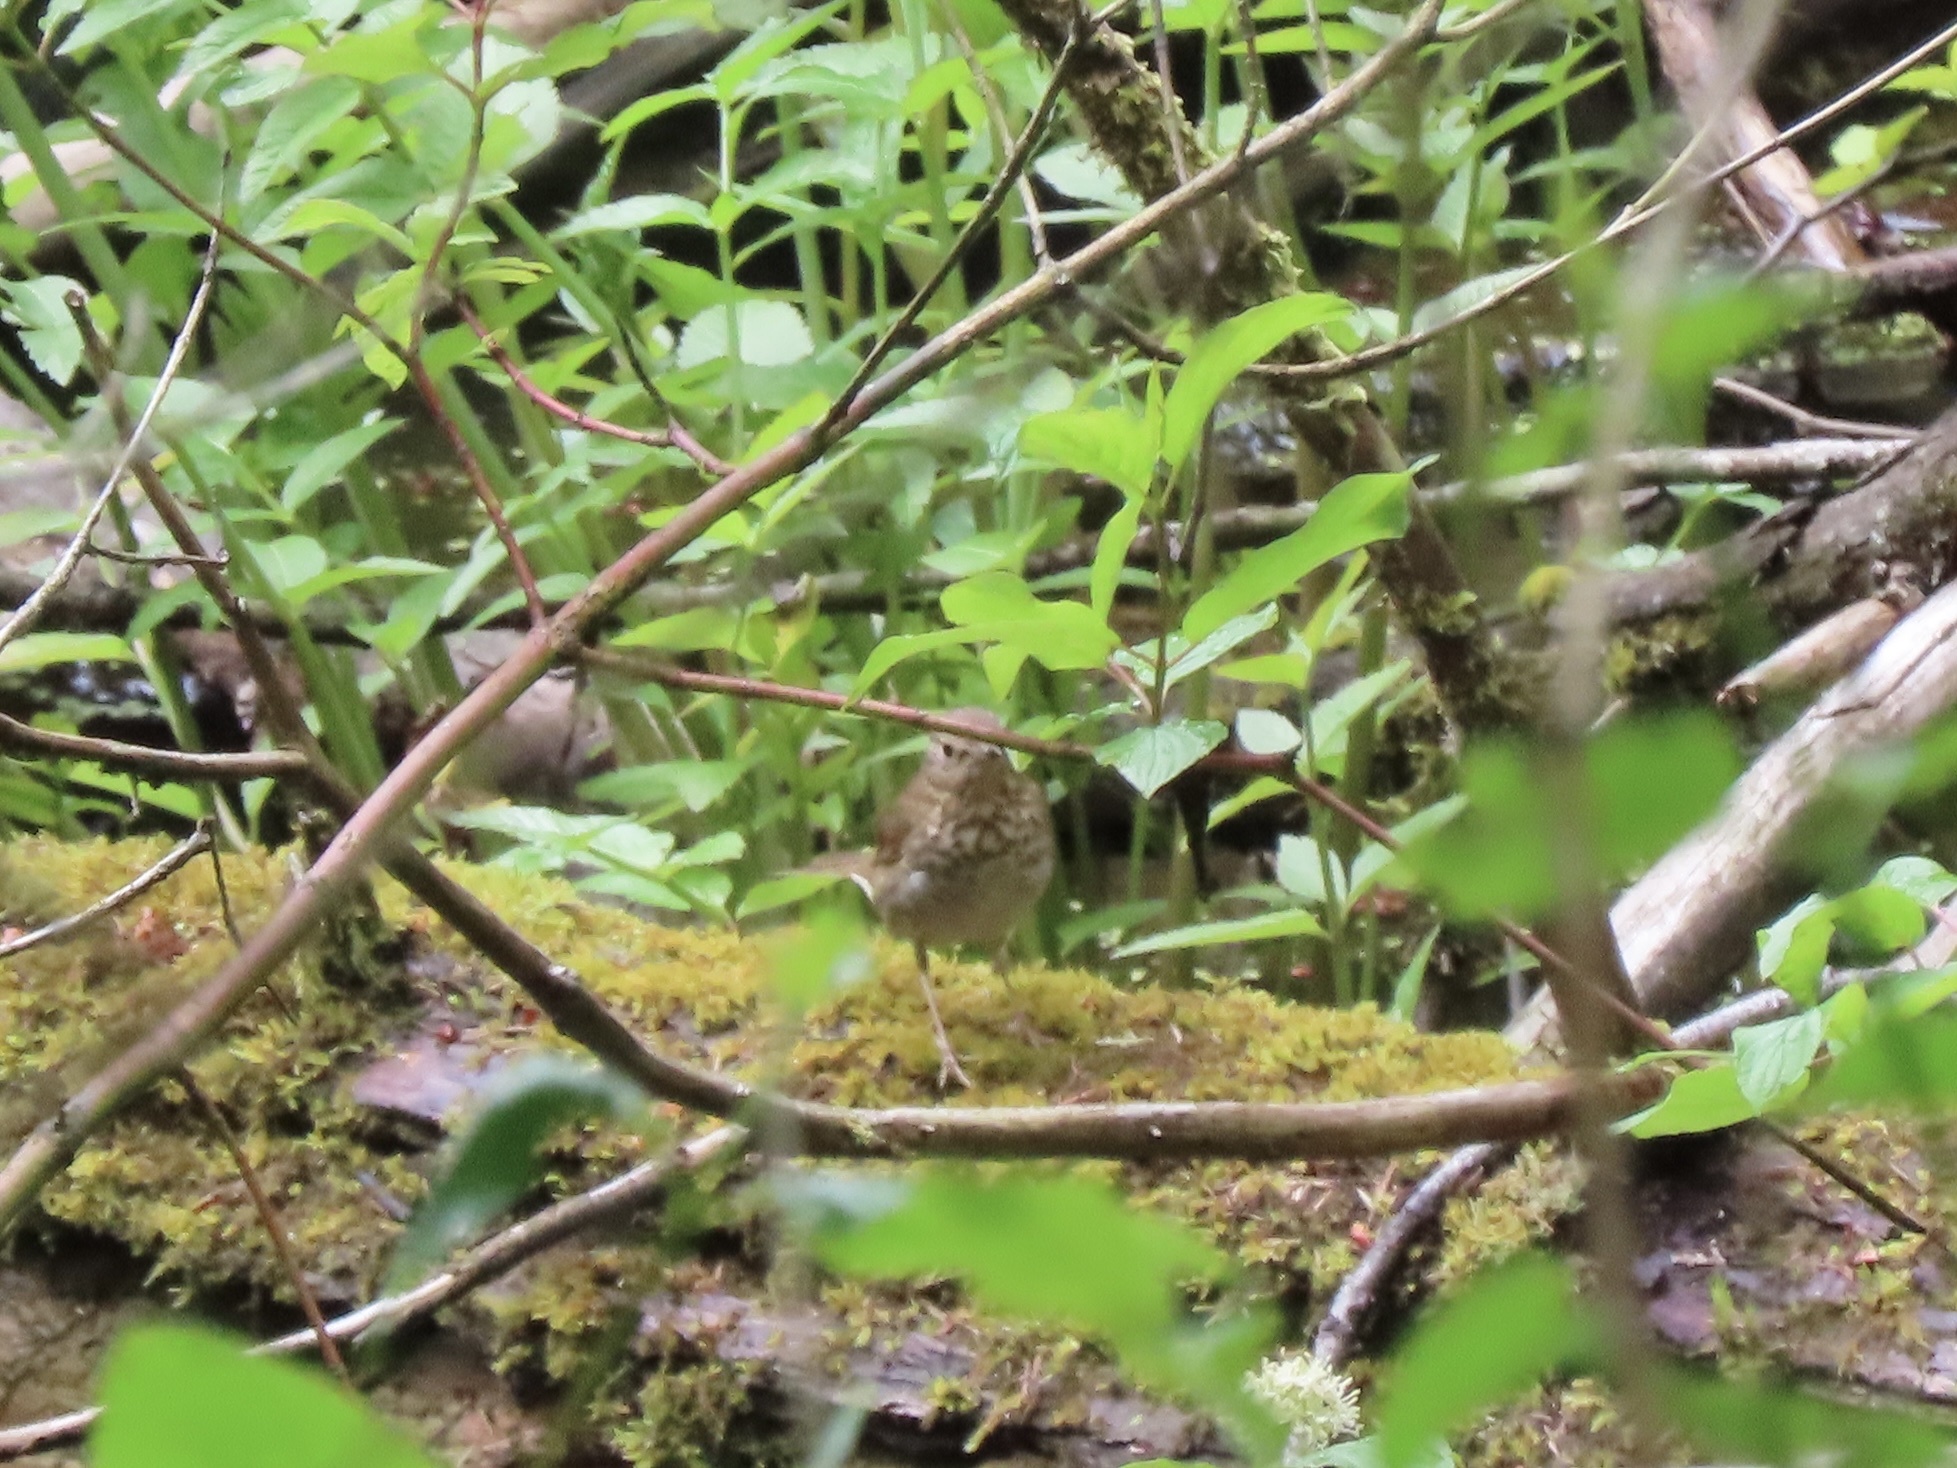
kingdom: Animalia
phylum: Chordata
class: Aves
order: Passeriformes
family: Turdidae
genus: Catharus
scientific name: Catharus ustulatus
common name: Swainson's thrush
